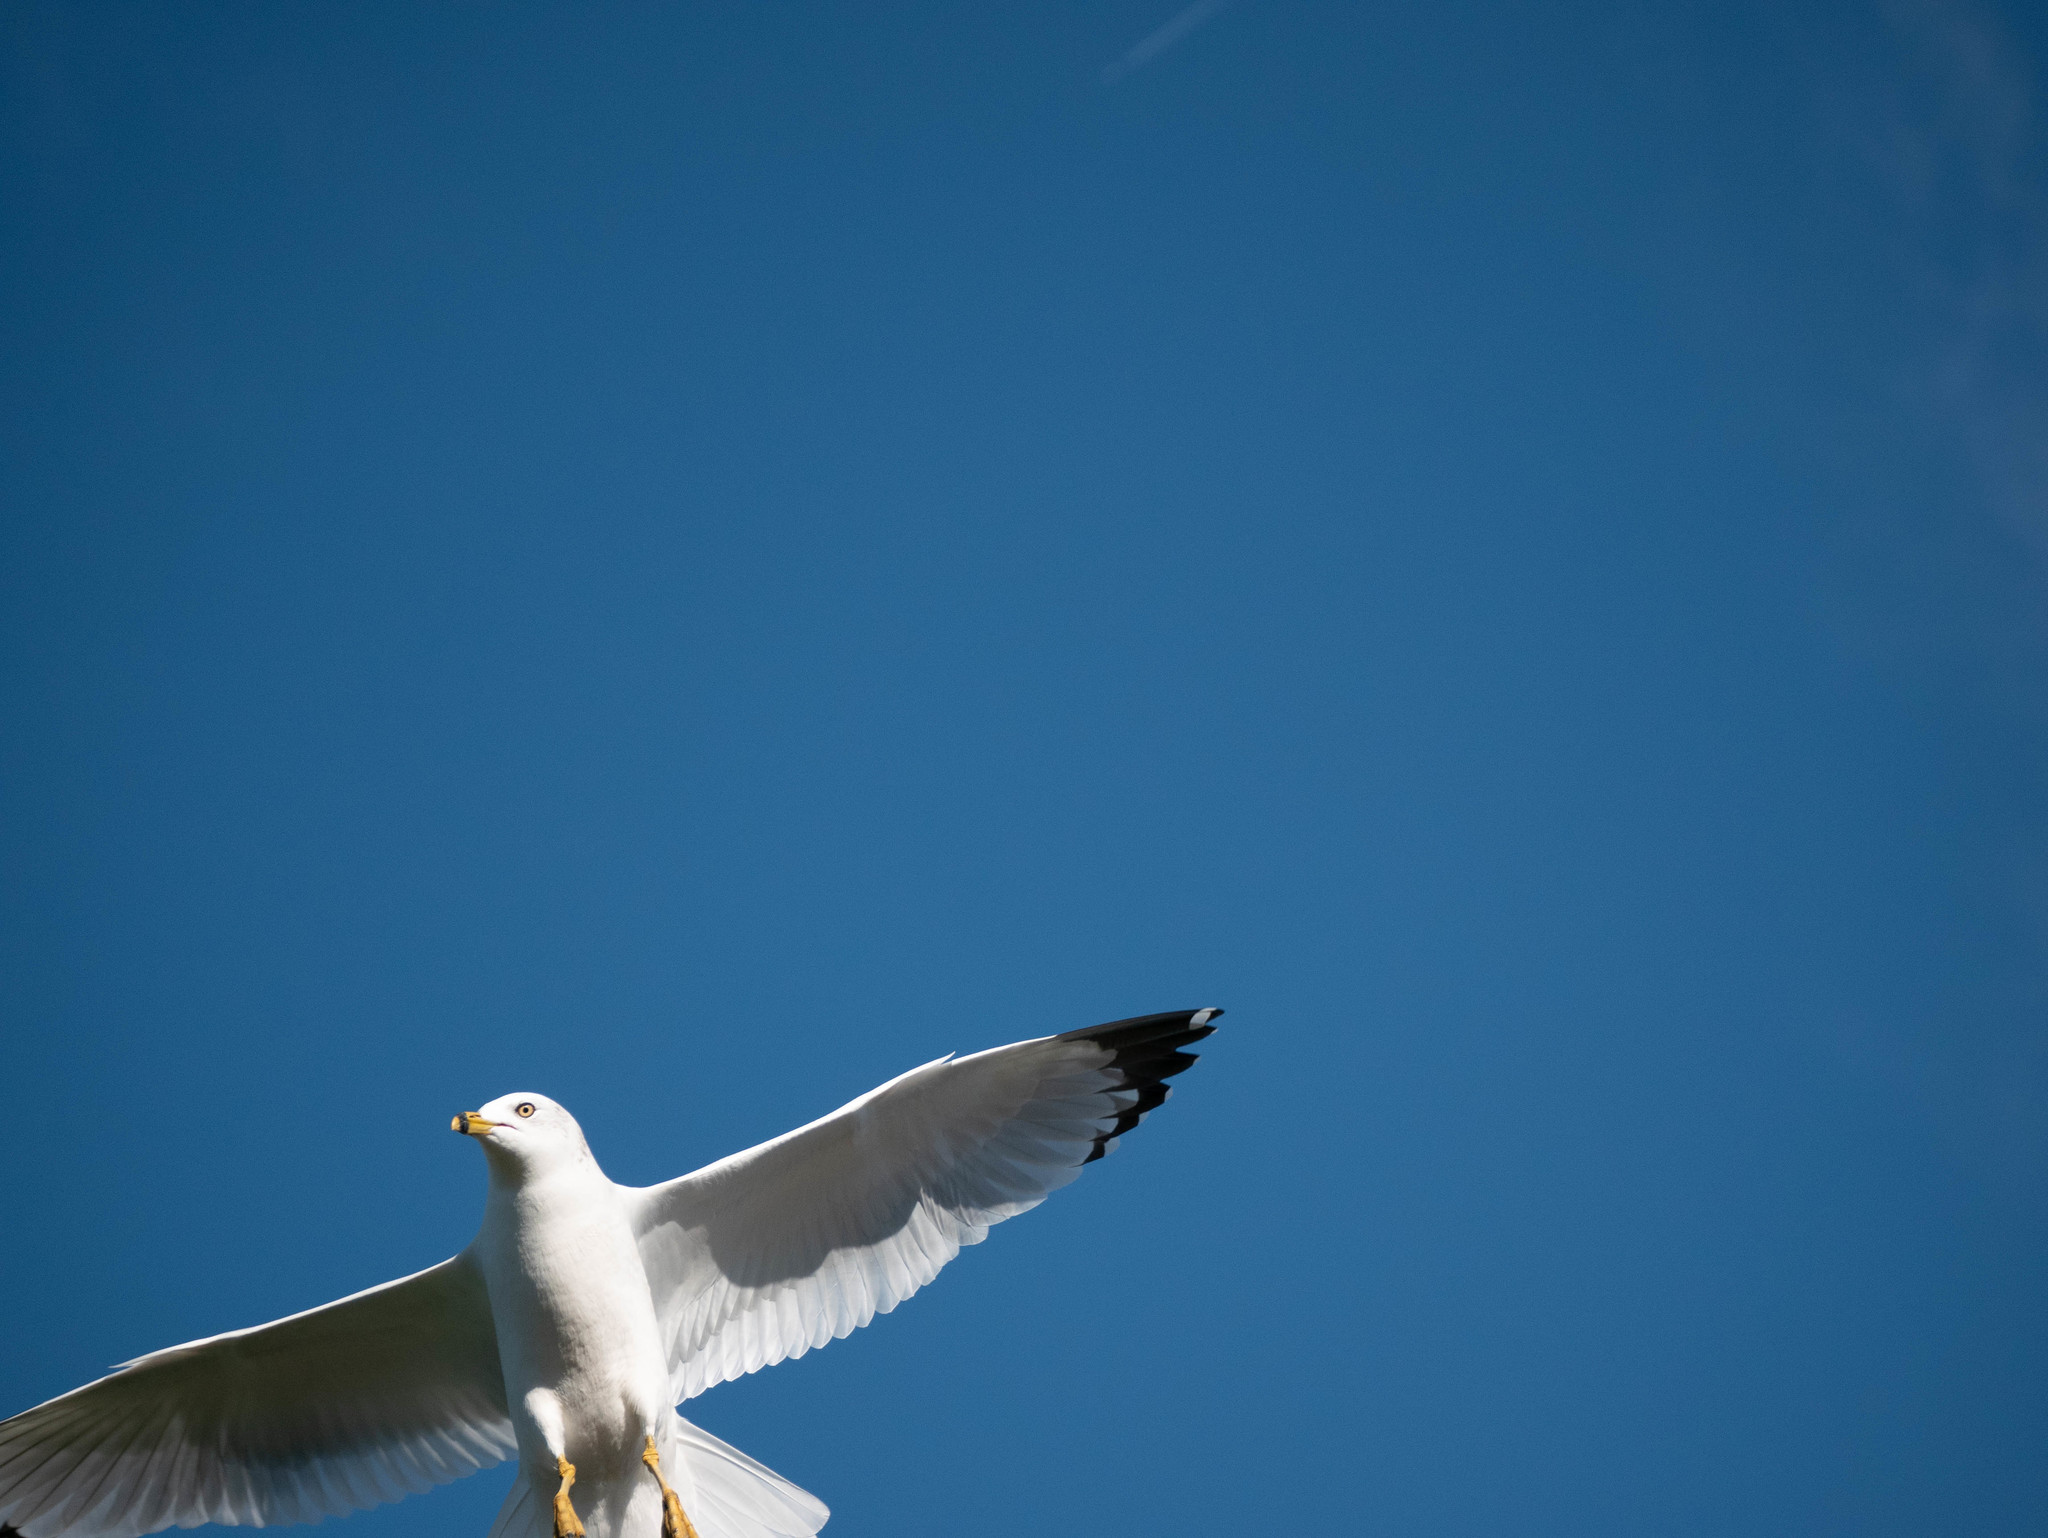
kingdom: Animalia
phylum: Chordata
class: Aves
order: Charadriiformes
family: Laridae
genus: Larus
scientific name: Larus delawarensis
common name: Ring-billed gull
